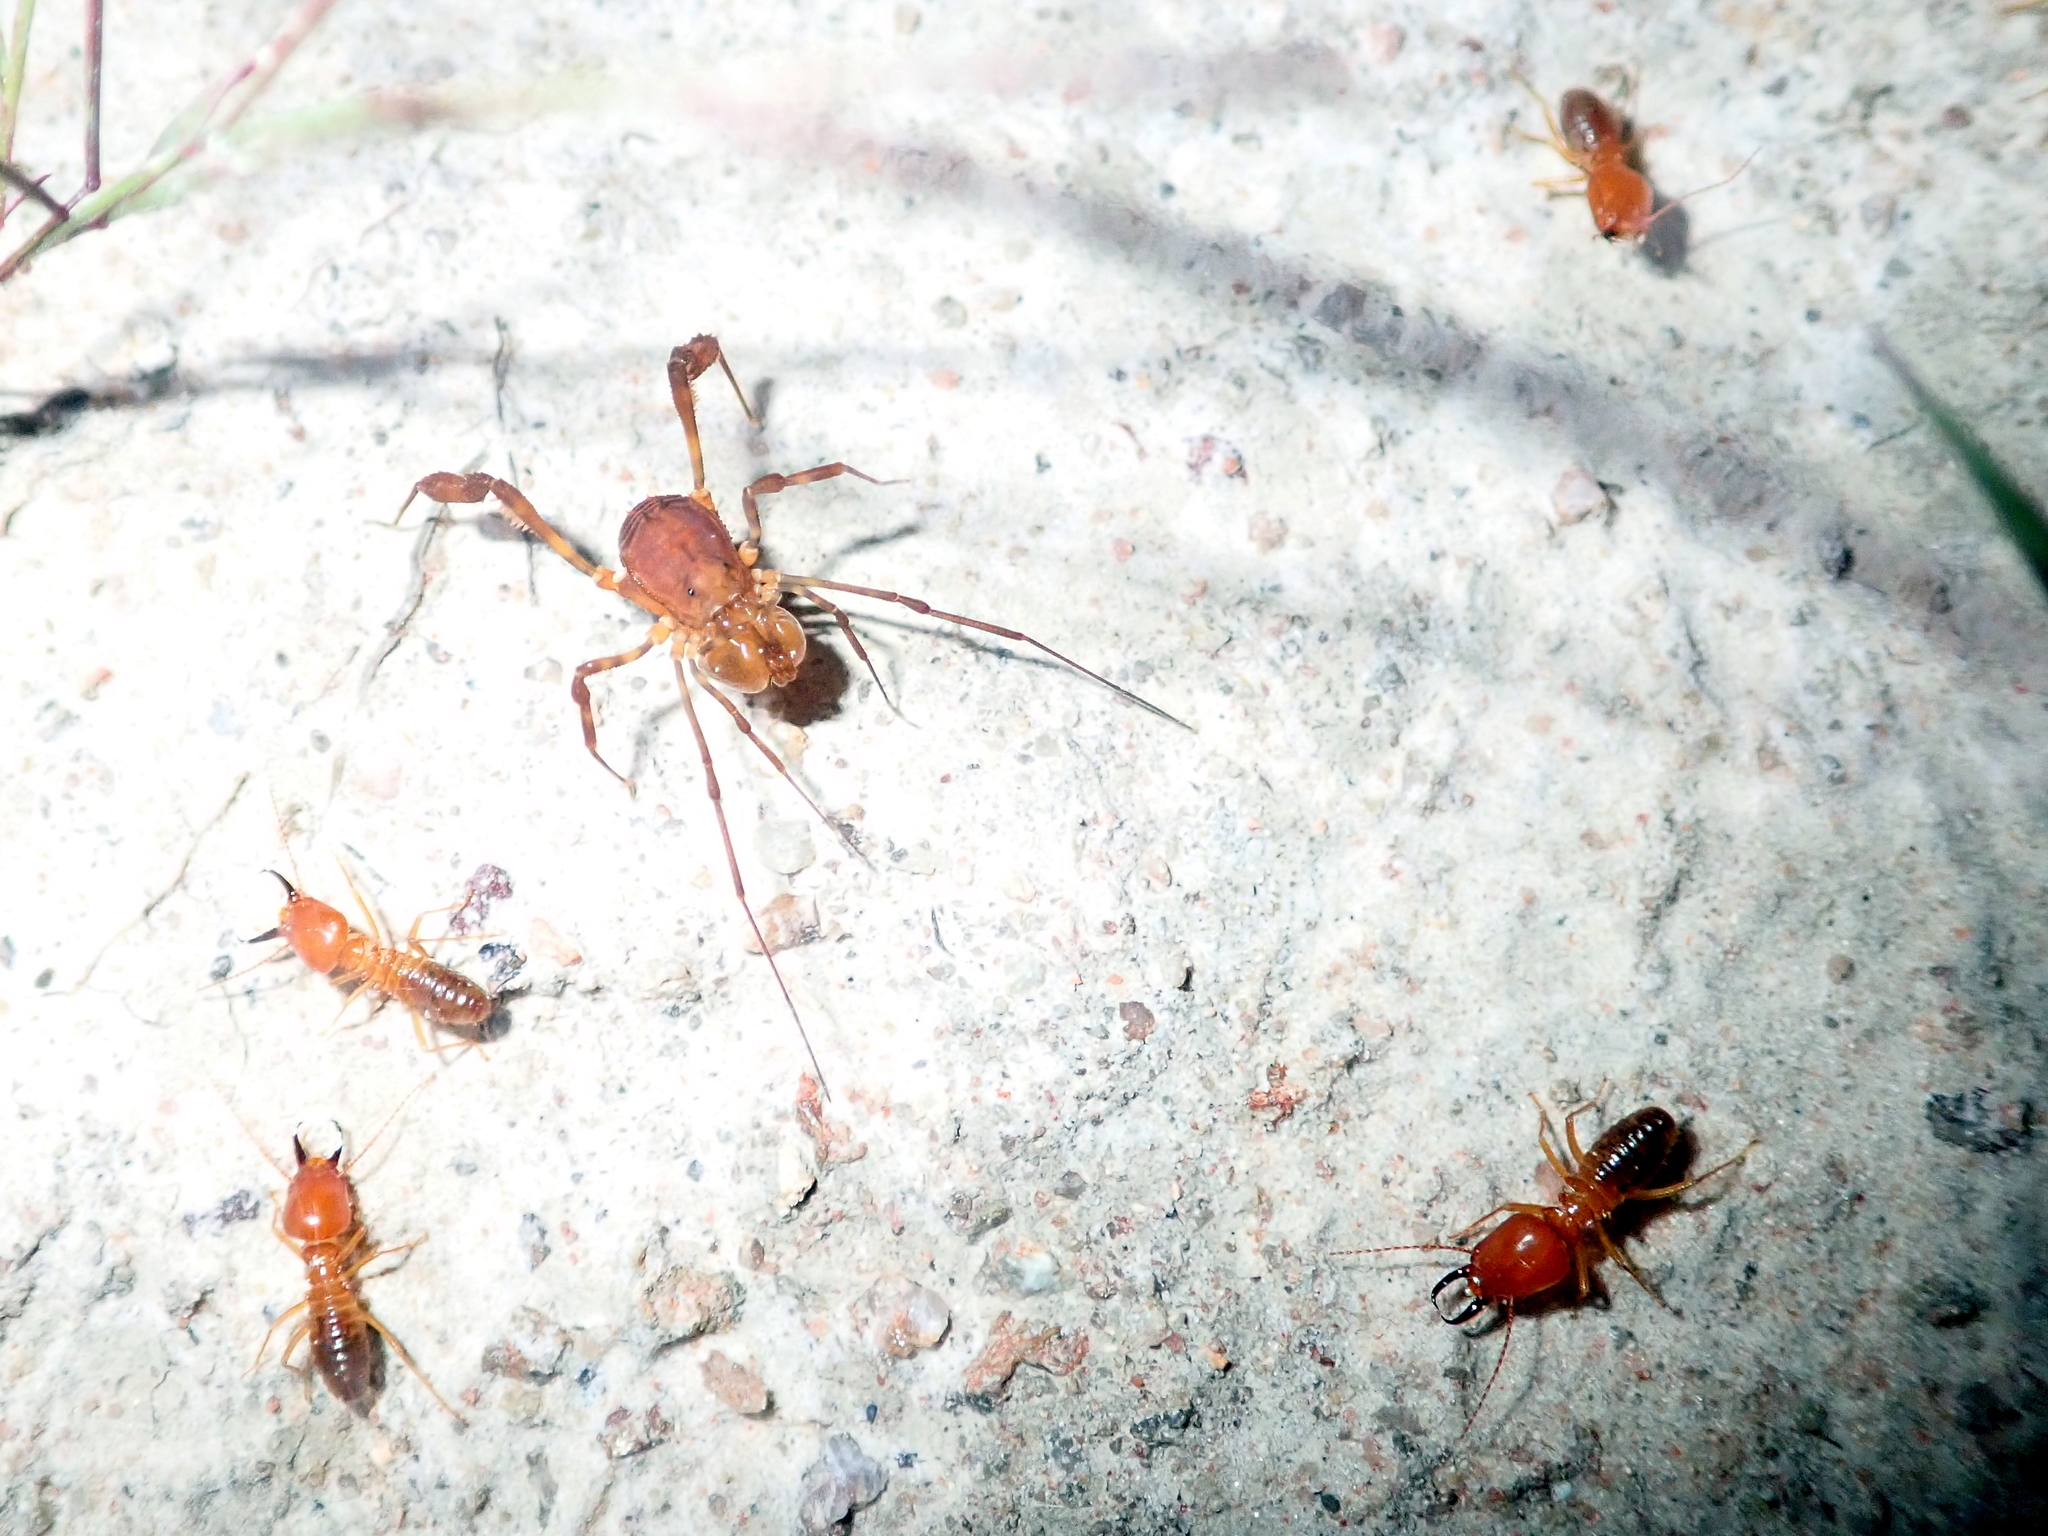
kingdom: Animalia
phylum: Arthropoda
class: Arachnida
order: Opiliones
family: Stygnidae
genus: Stygnus
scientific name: Stygnus polyacanthus
